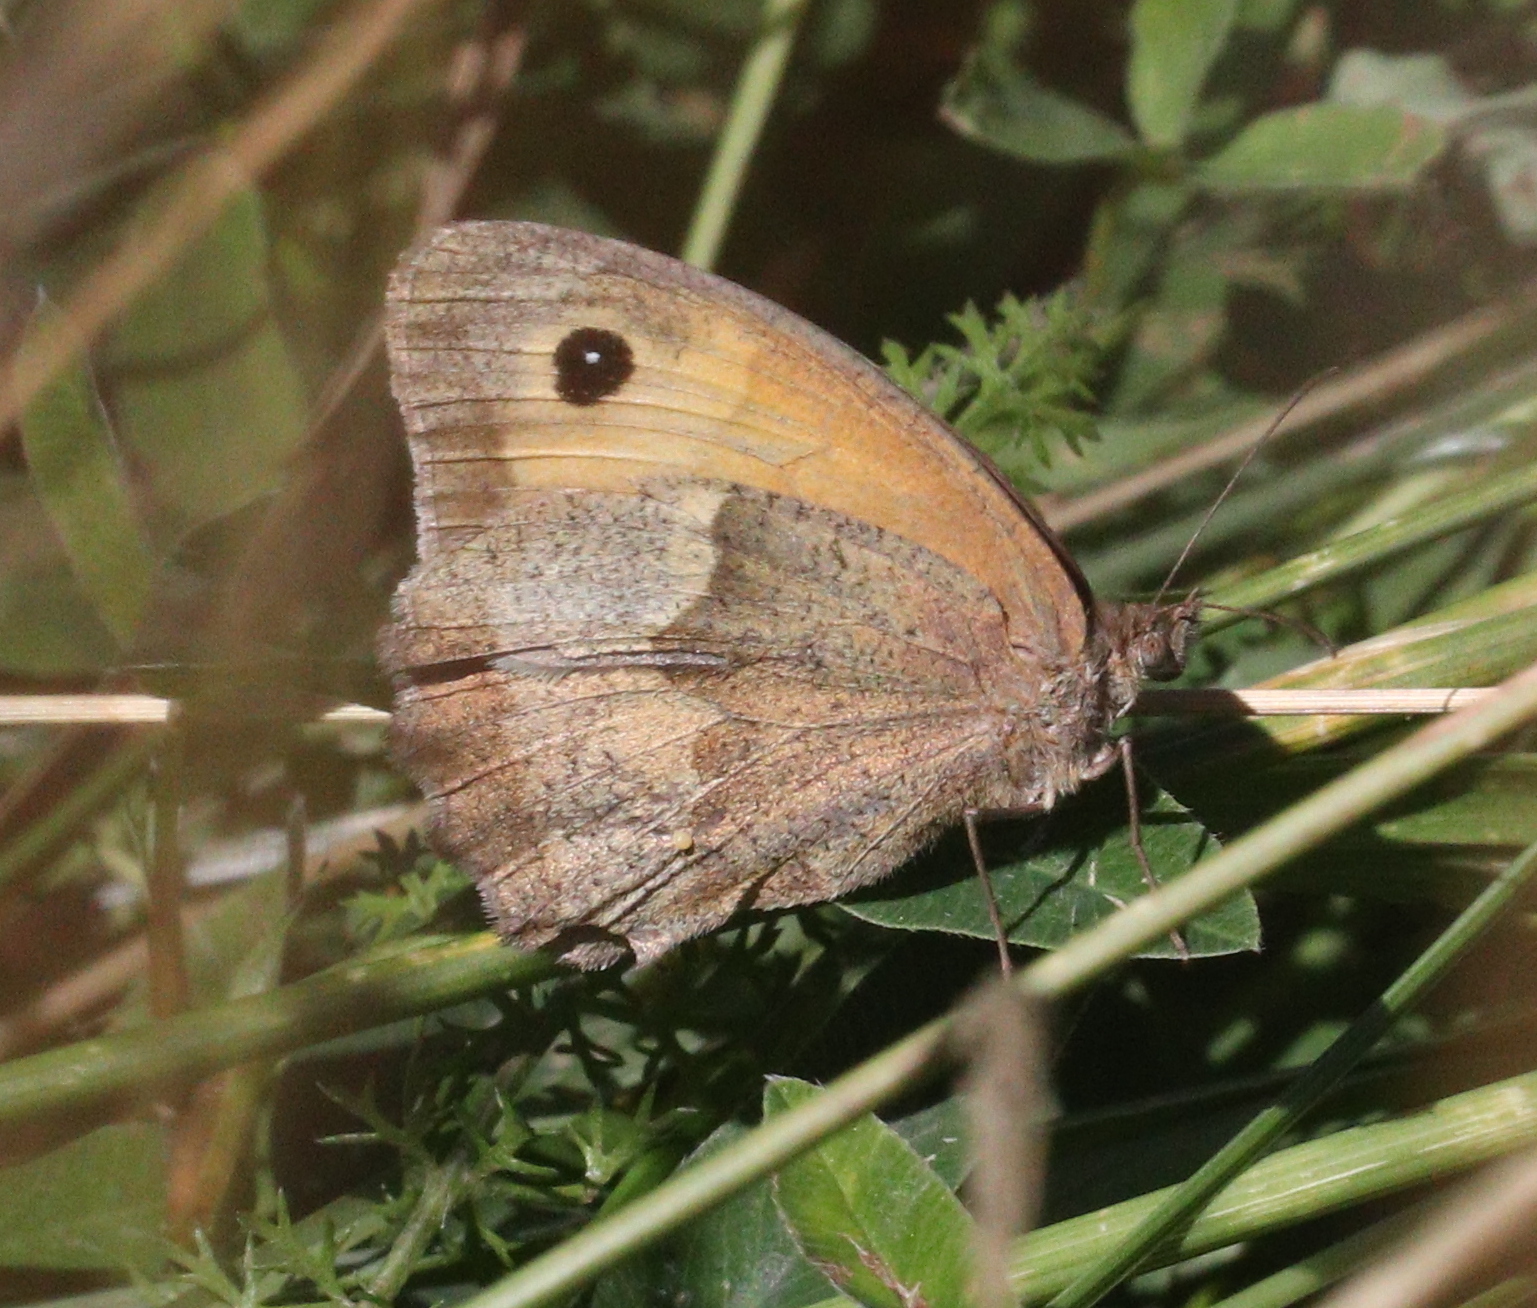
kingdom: Animalia
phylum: Arthropoda
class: Insecta
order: Lepidoptera
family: Nymphalidae
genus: Maniola
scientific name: Maniola jurtina
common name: Meadow brown
